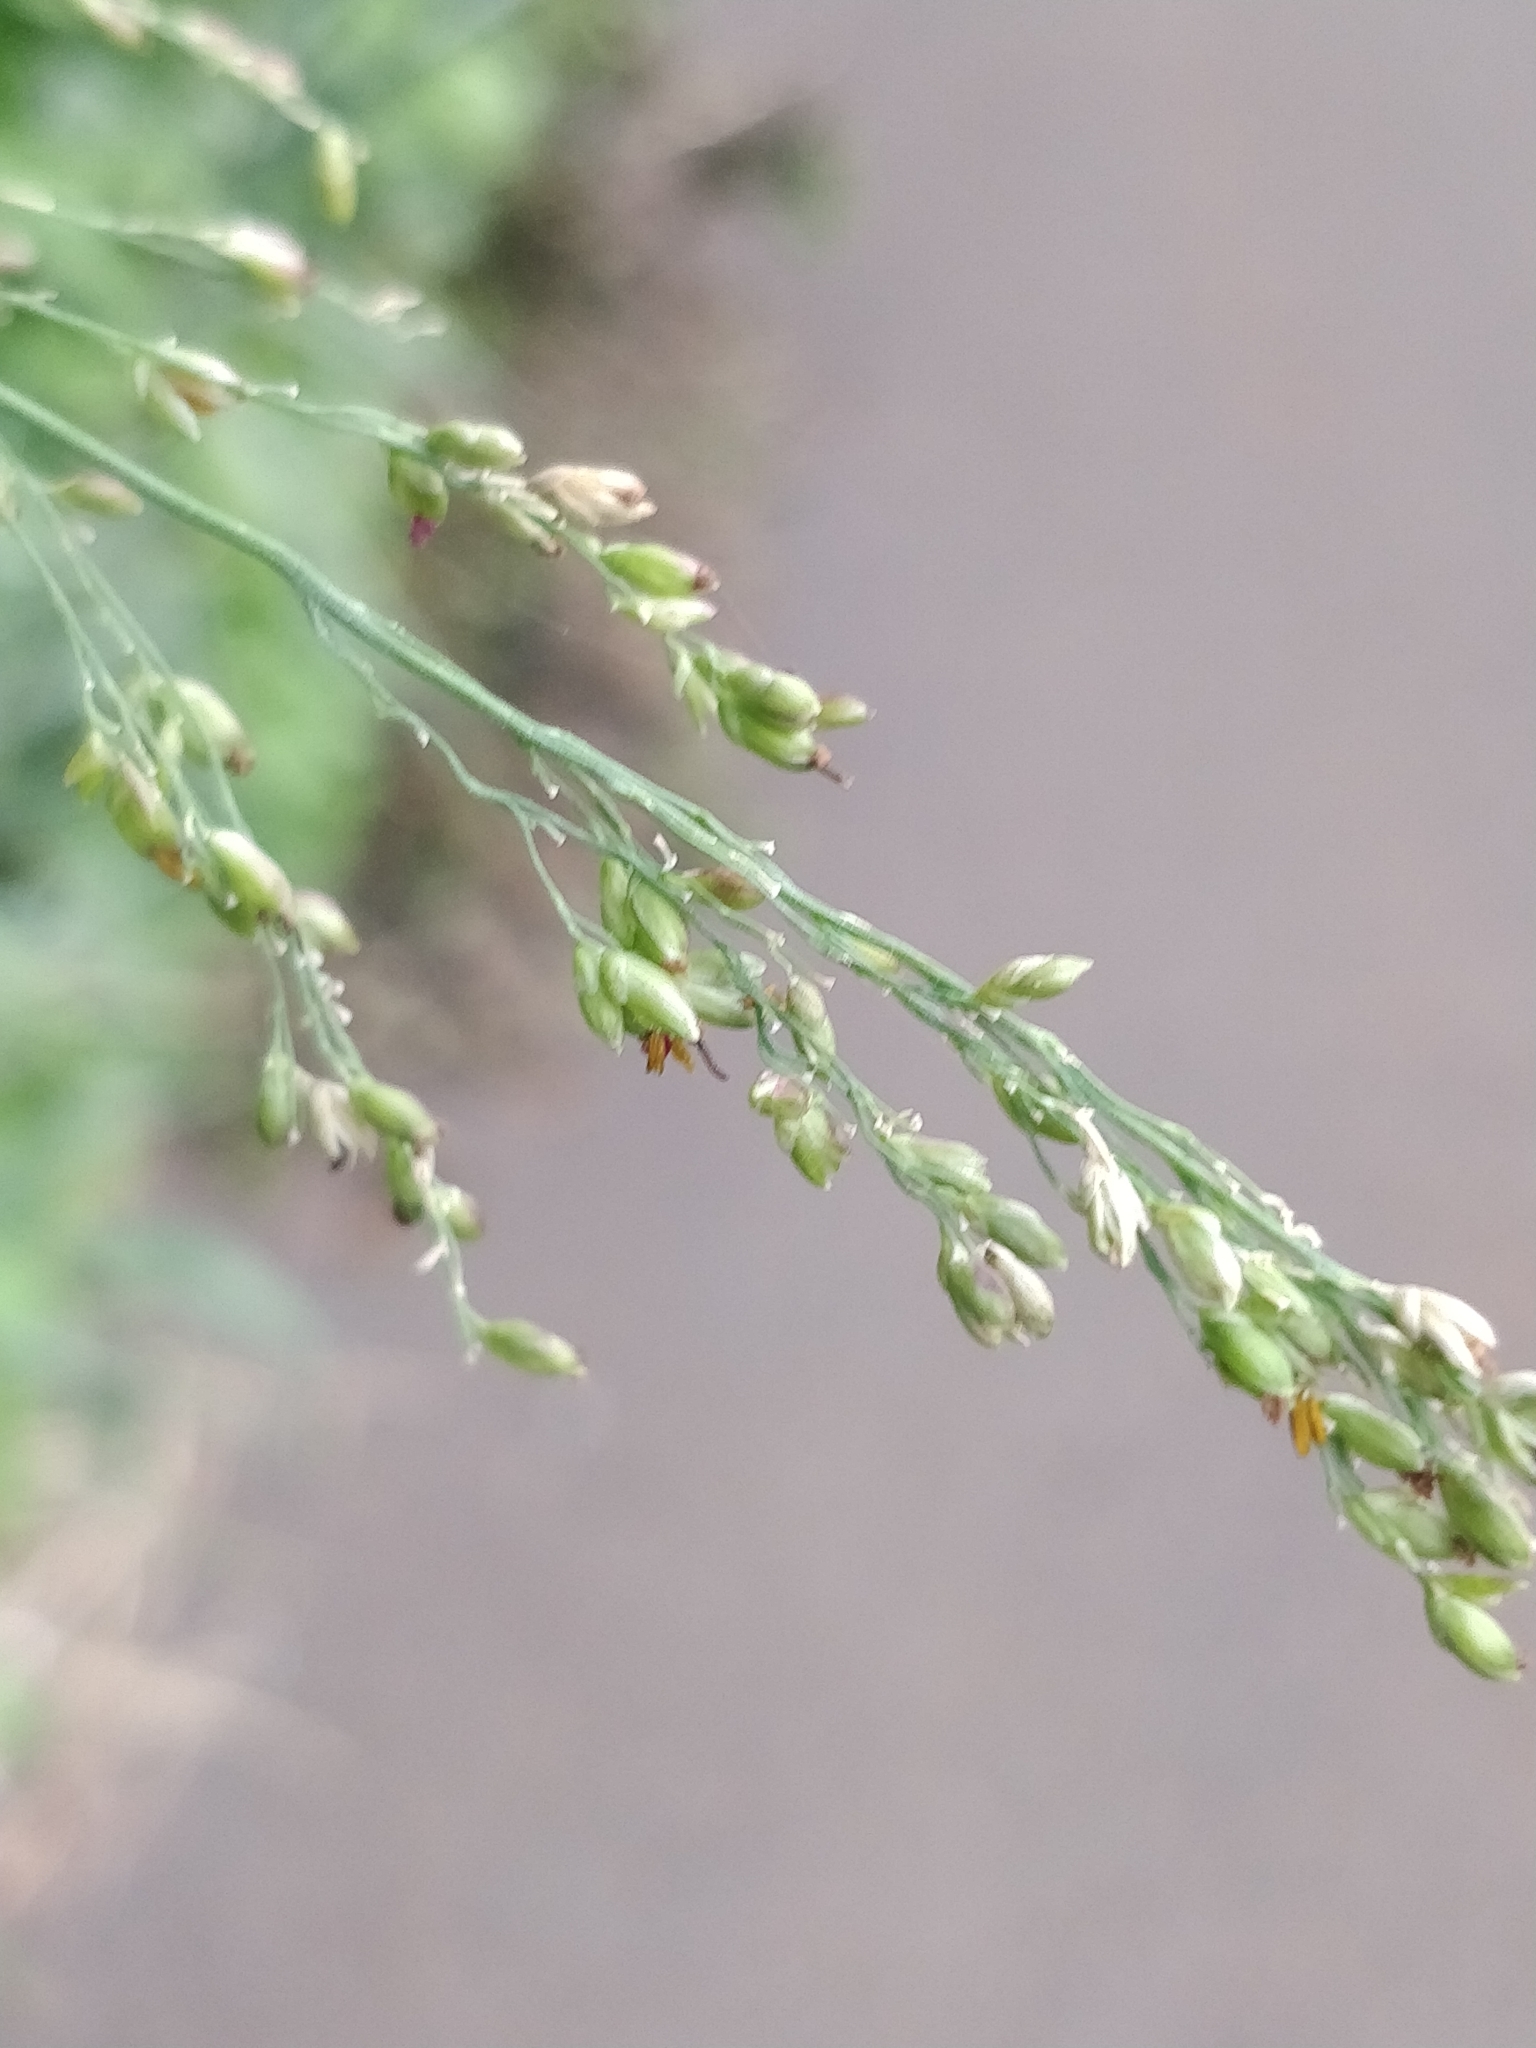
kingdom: Plantae
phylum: Tracheophyta
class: Liliopsida
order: Poales
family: Poaceae
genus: Panicum
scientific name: Panicum miliaceum
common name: Common millet
